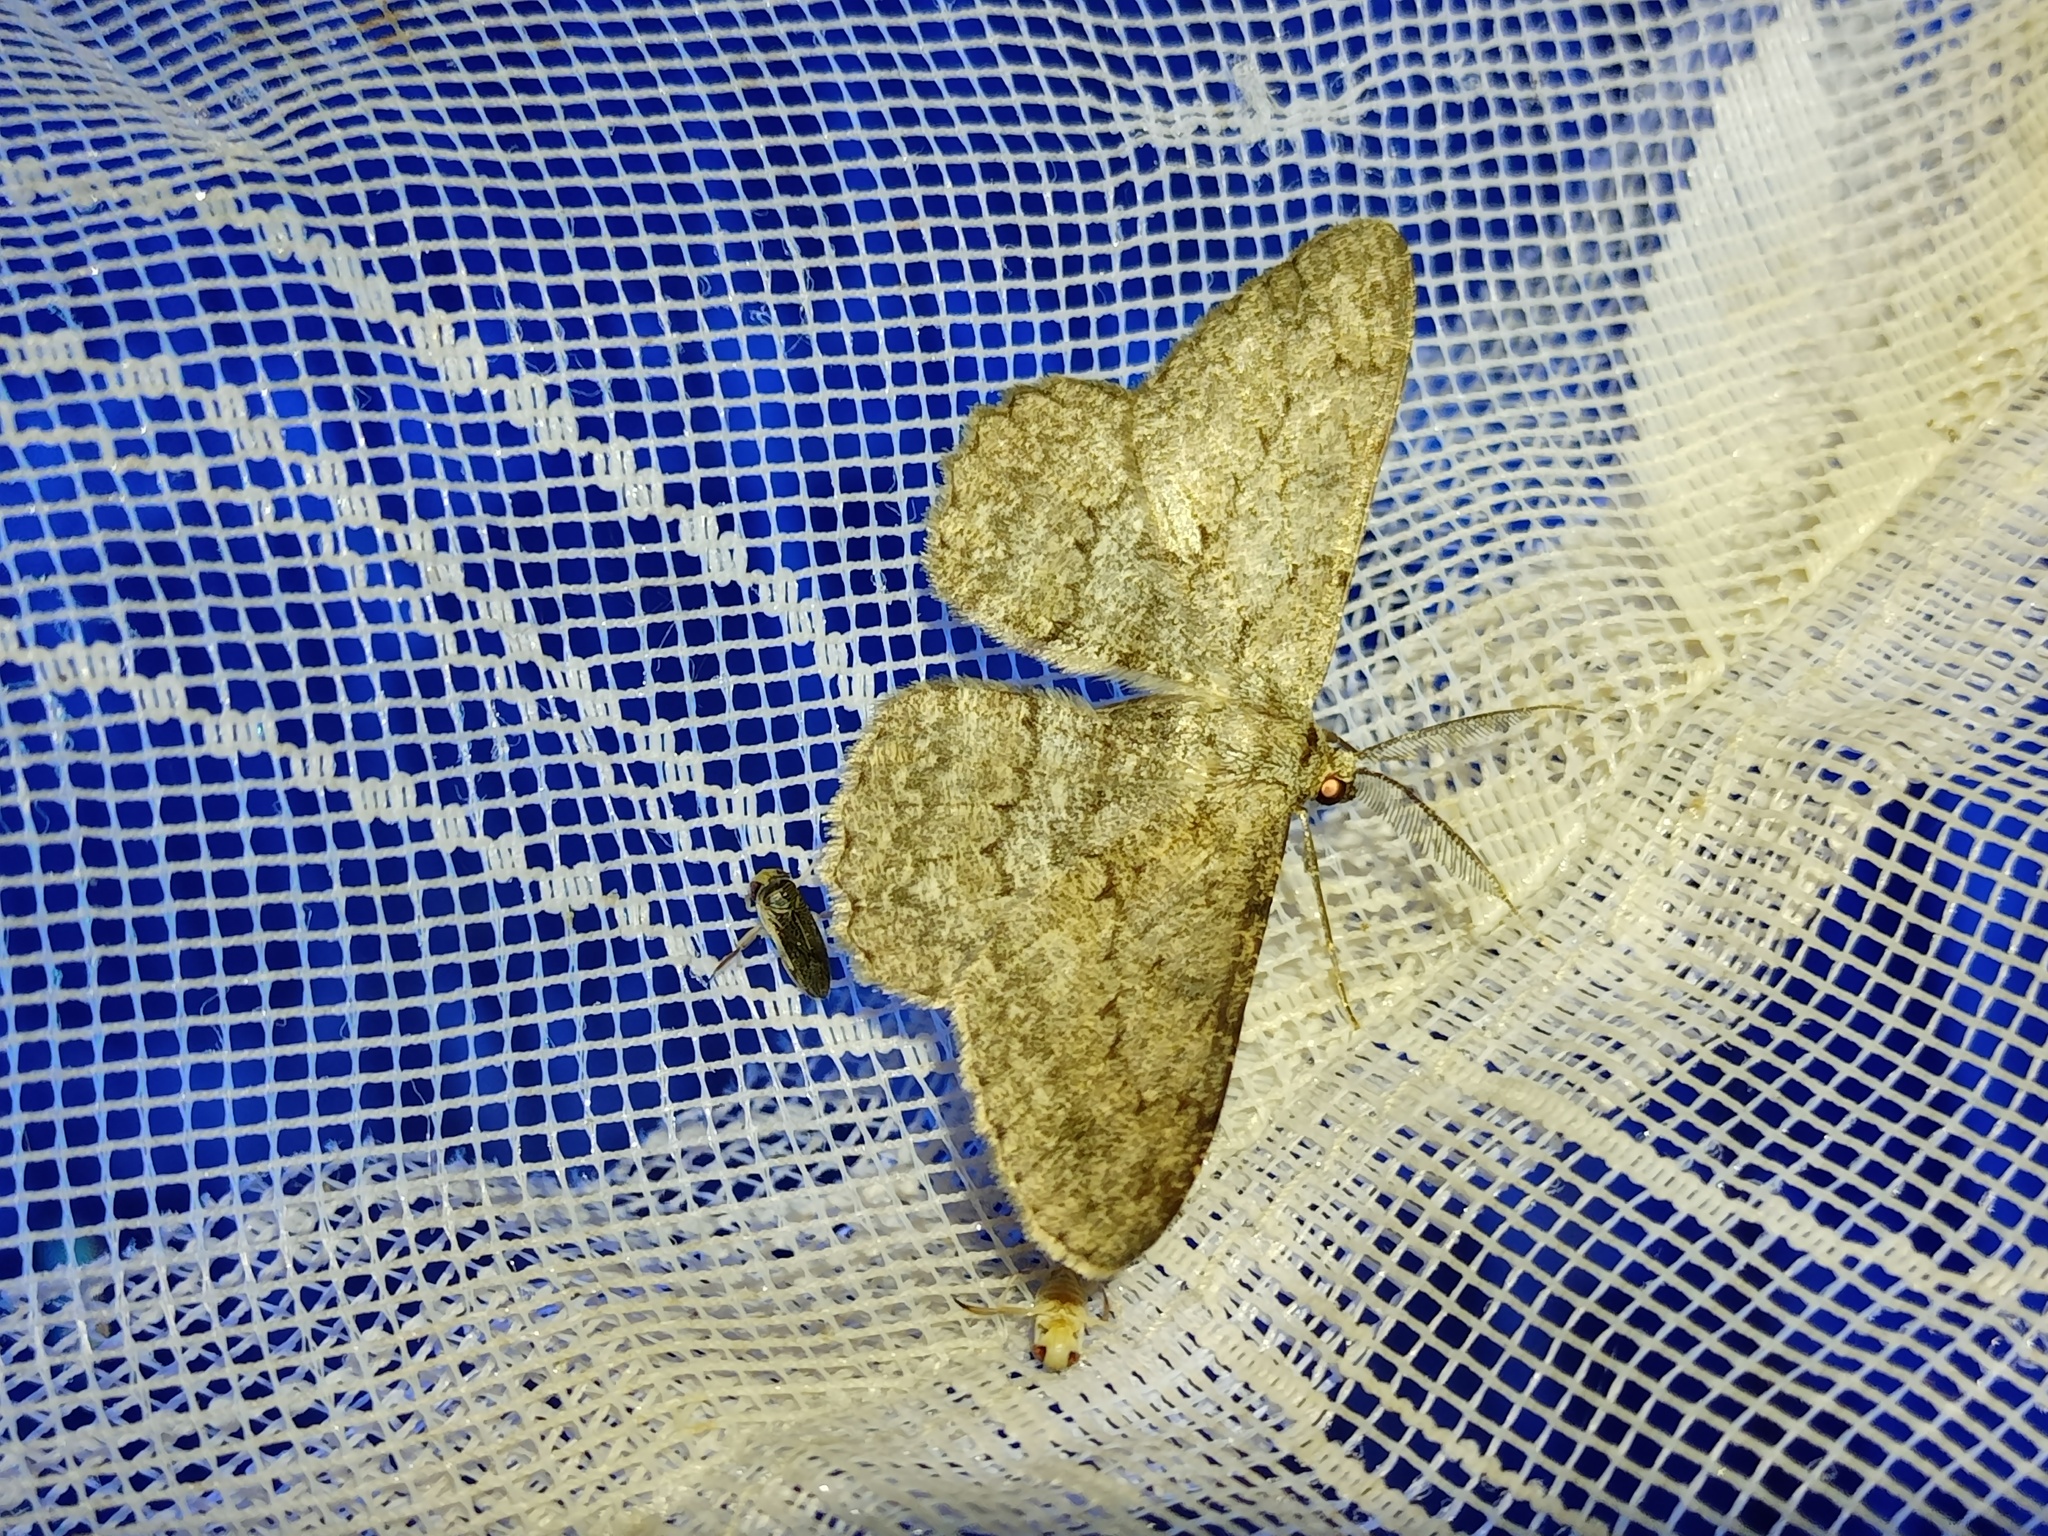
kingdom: Animalia
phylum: Arthropoda
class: Insecta
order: Lepidoptera
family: Geometridae
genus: Hypomecis
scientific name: Hypomecis punctinalis
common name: Pale oak beauty
